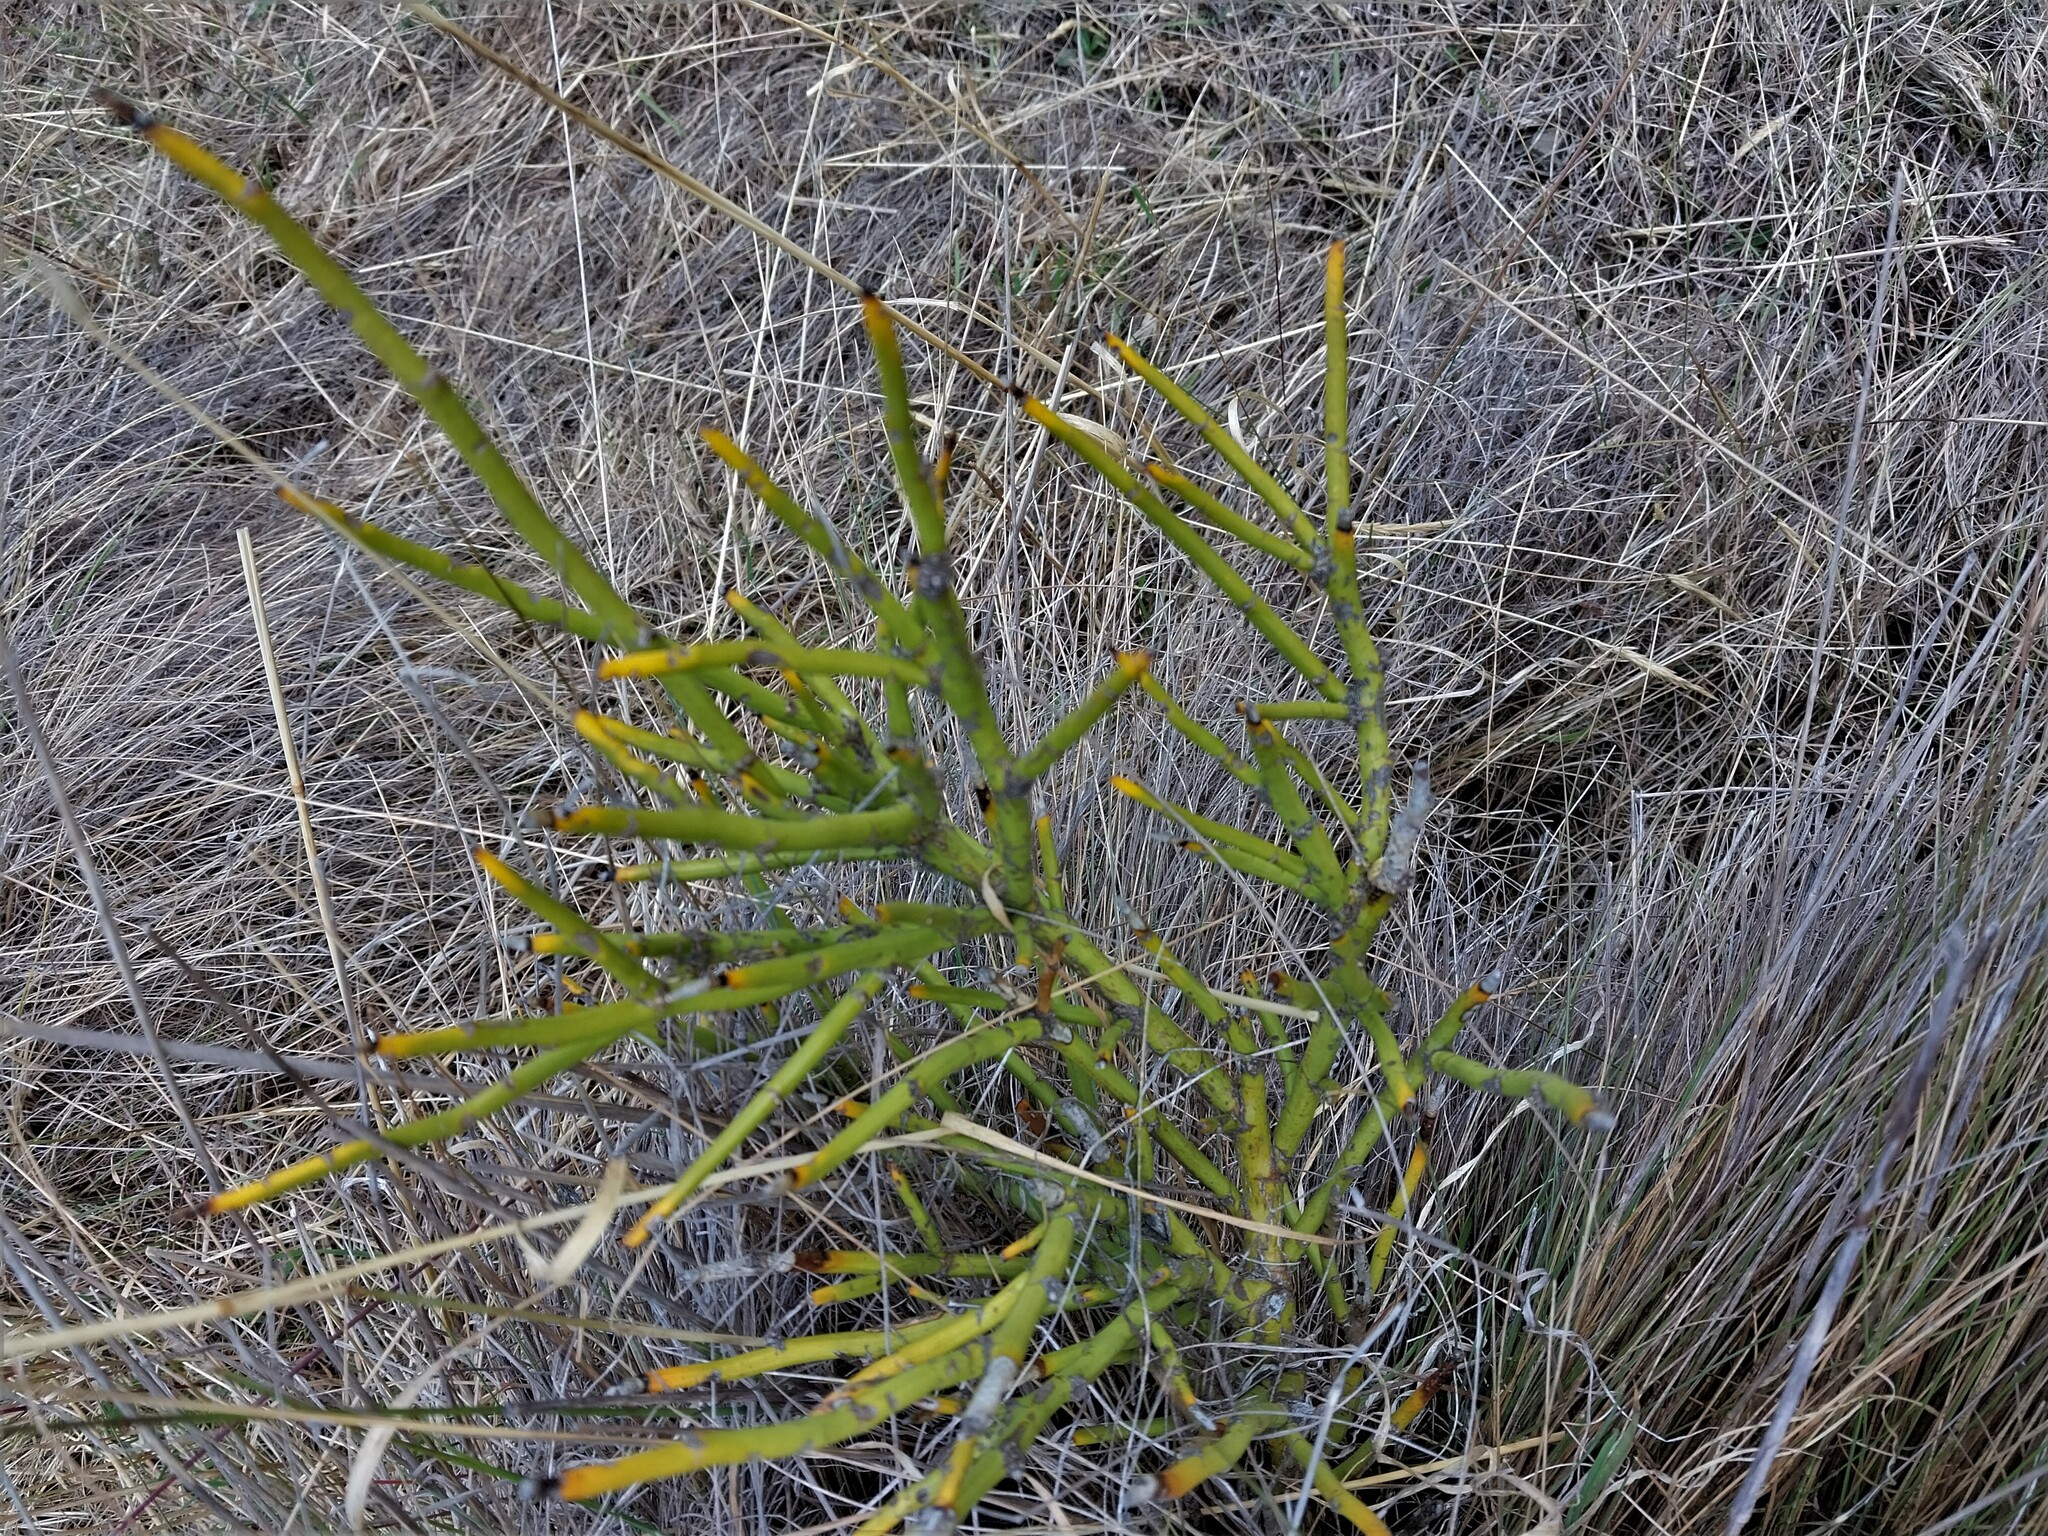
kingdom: Plantae
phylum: Tracheophyta
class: Magnoliopsida
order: Fabales
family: Fabaceae
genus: Carmichaelia
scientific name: Carmichaelia petriei
